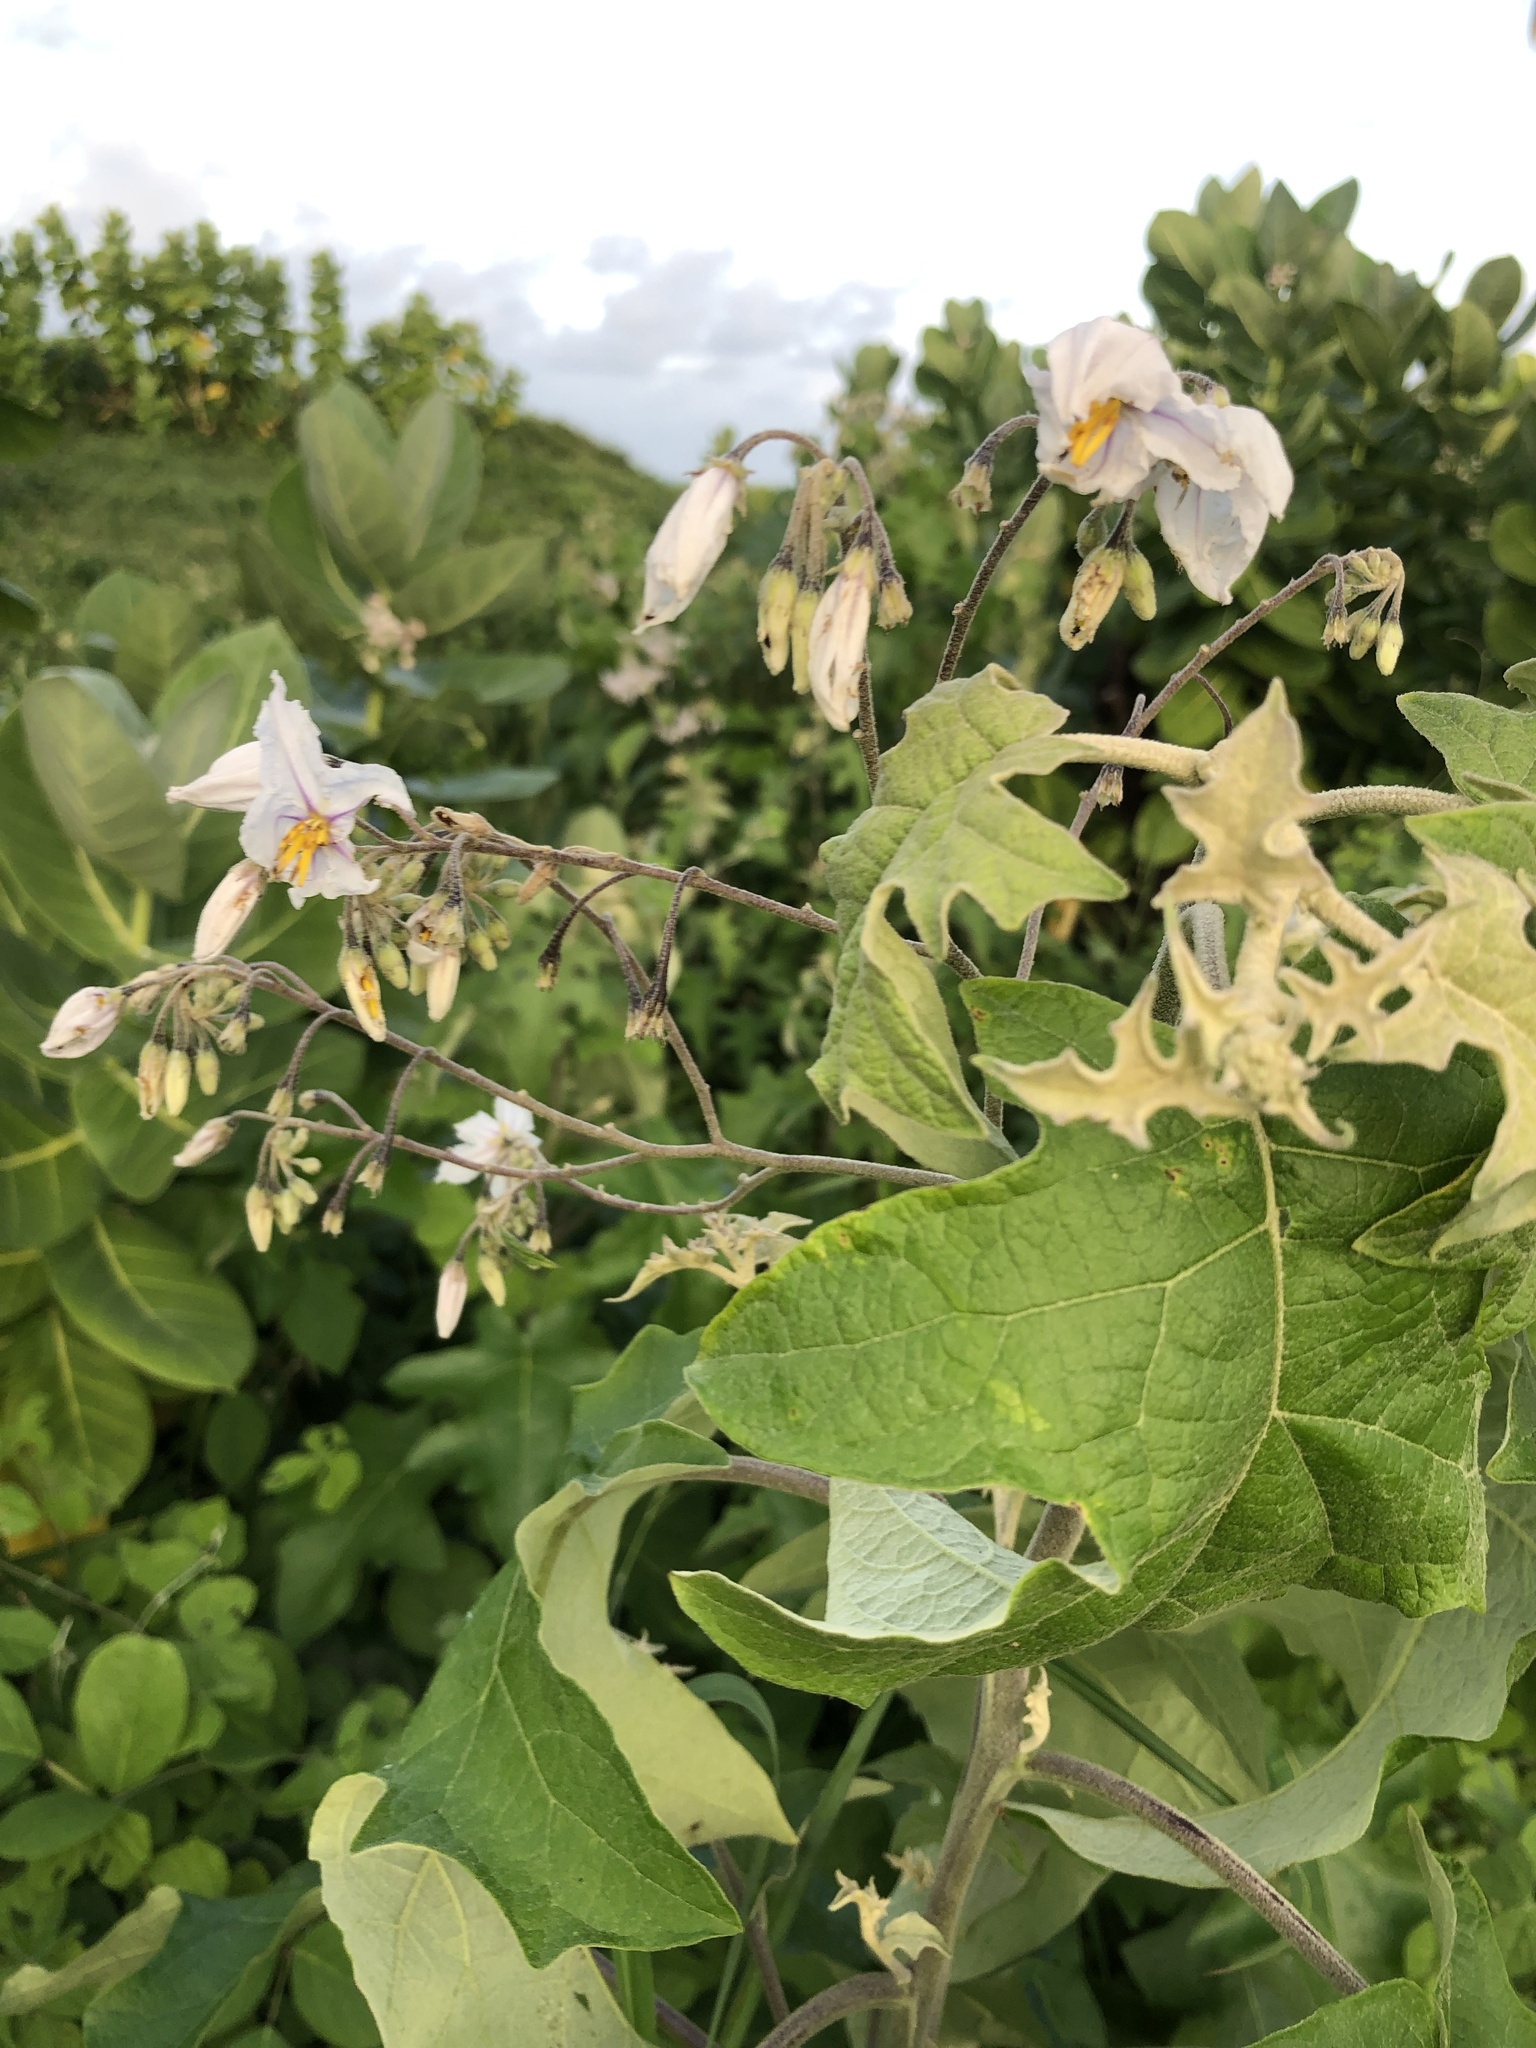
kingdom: Plantae
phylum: Tracheophyta
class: Magnoliopsida
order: Solanales
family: Solanaceae
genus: Solanum
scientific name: Solanum paniculatum
